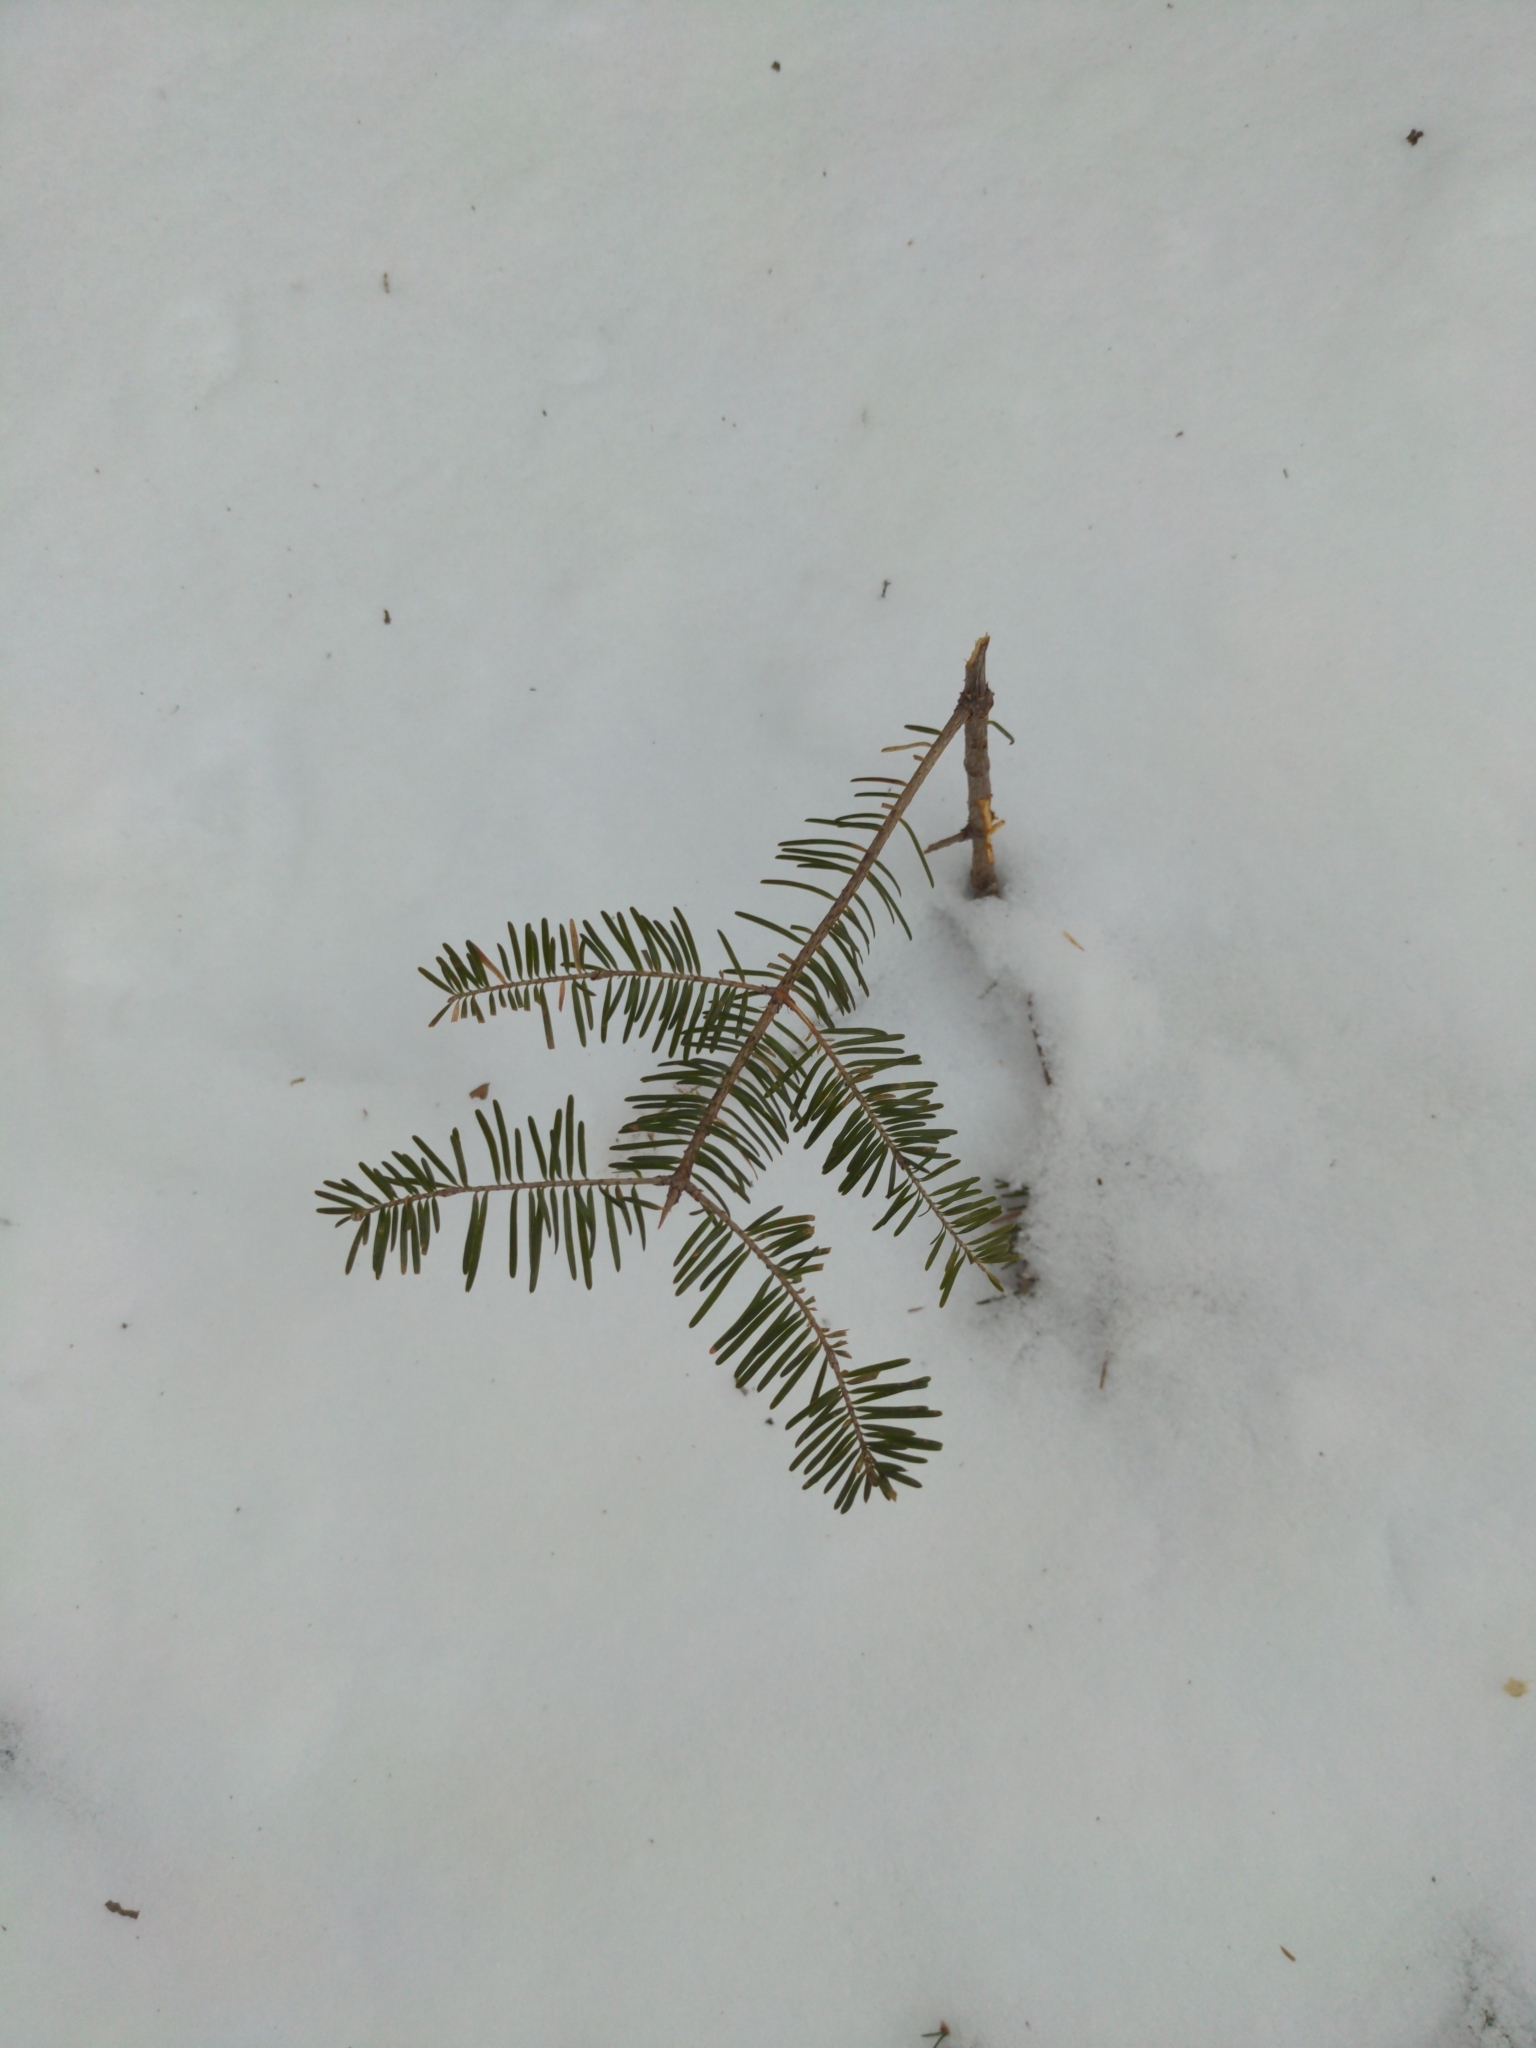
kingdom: Plantae
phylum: Tracheophyta
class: Pinopsida
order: Pinales
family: Pinaceae
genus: Abies
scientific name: Abies balsamea
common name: Balsam fir
